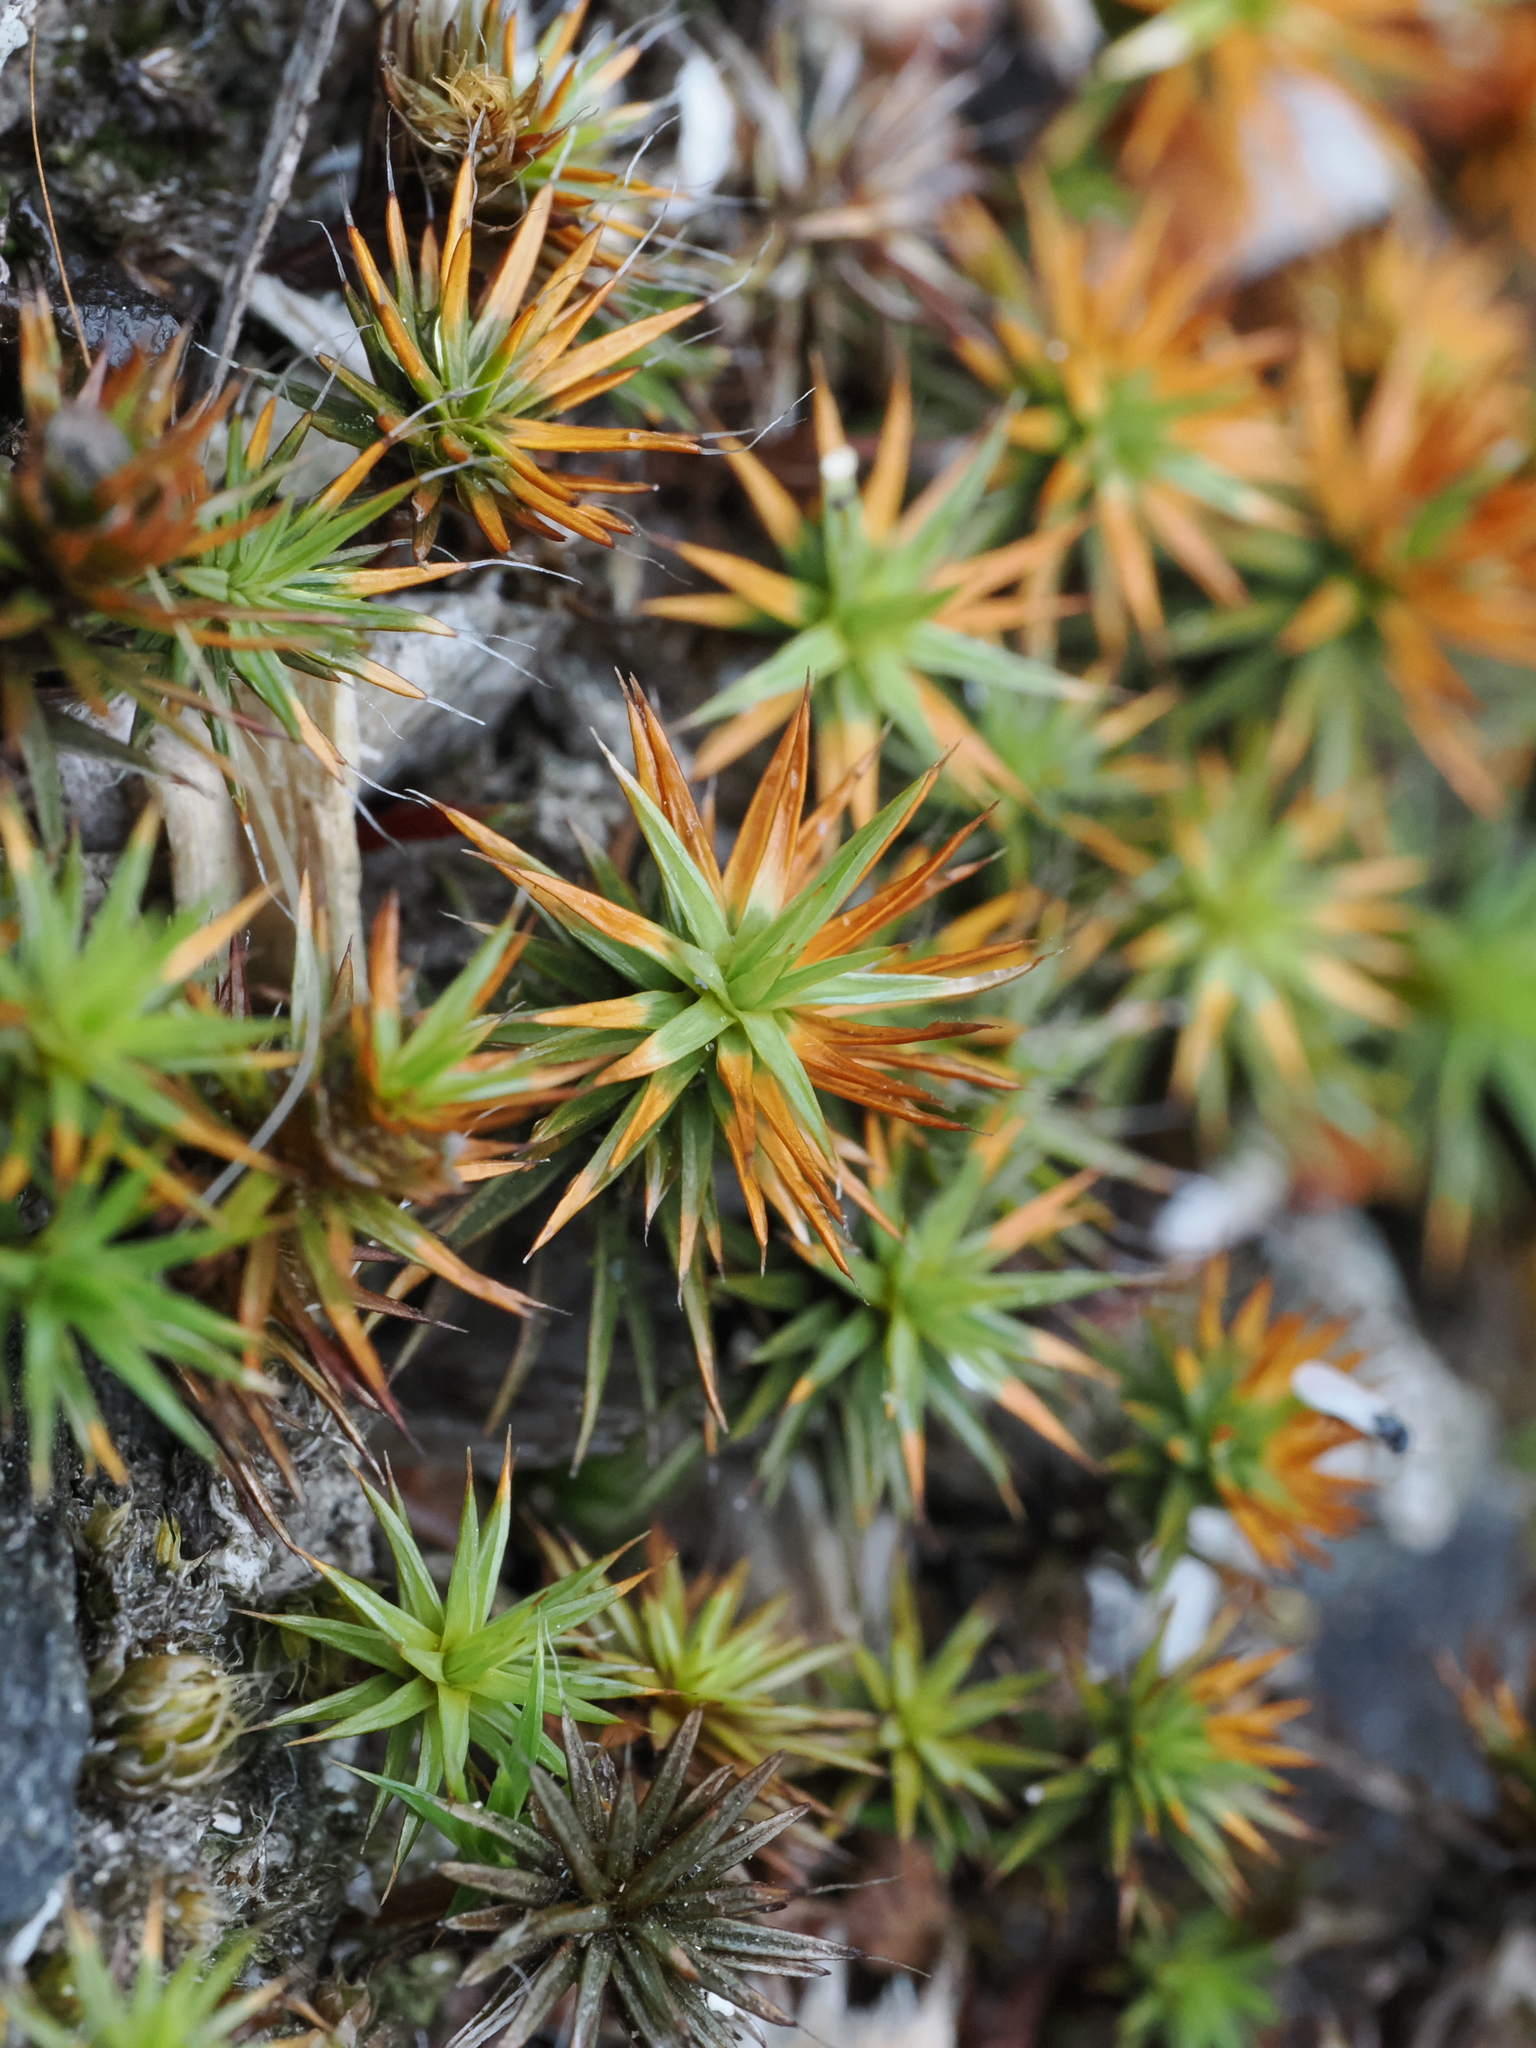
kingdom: Plantae
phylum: Bryophyta
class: Polytrichopsida
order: Polytrichales
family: Polytrichaceae
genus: Polytrichum
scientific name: Polytrichum juniperinum
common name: Juniper haircap moss
